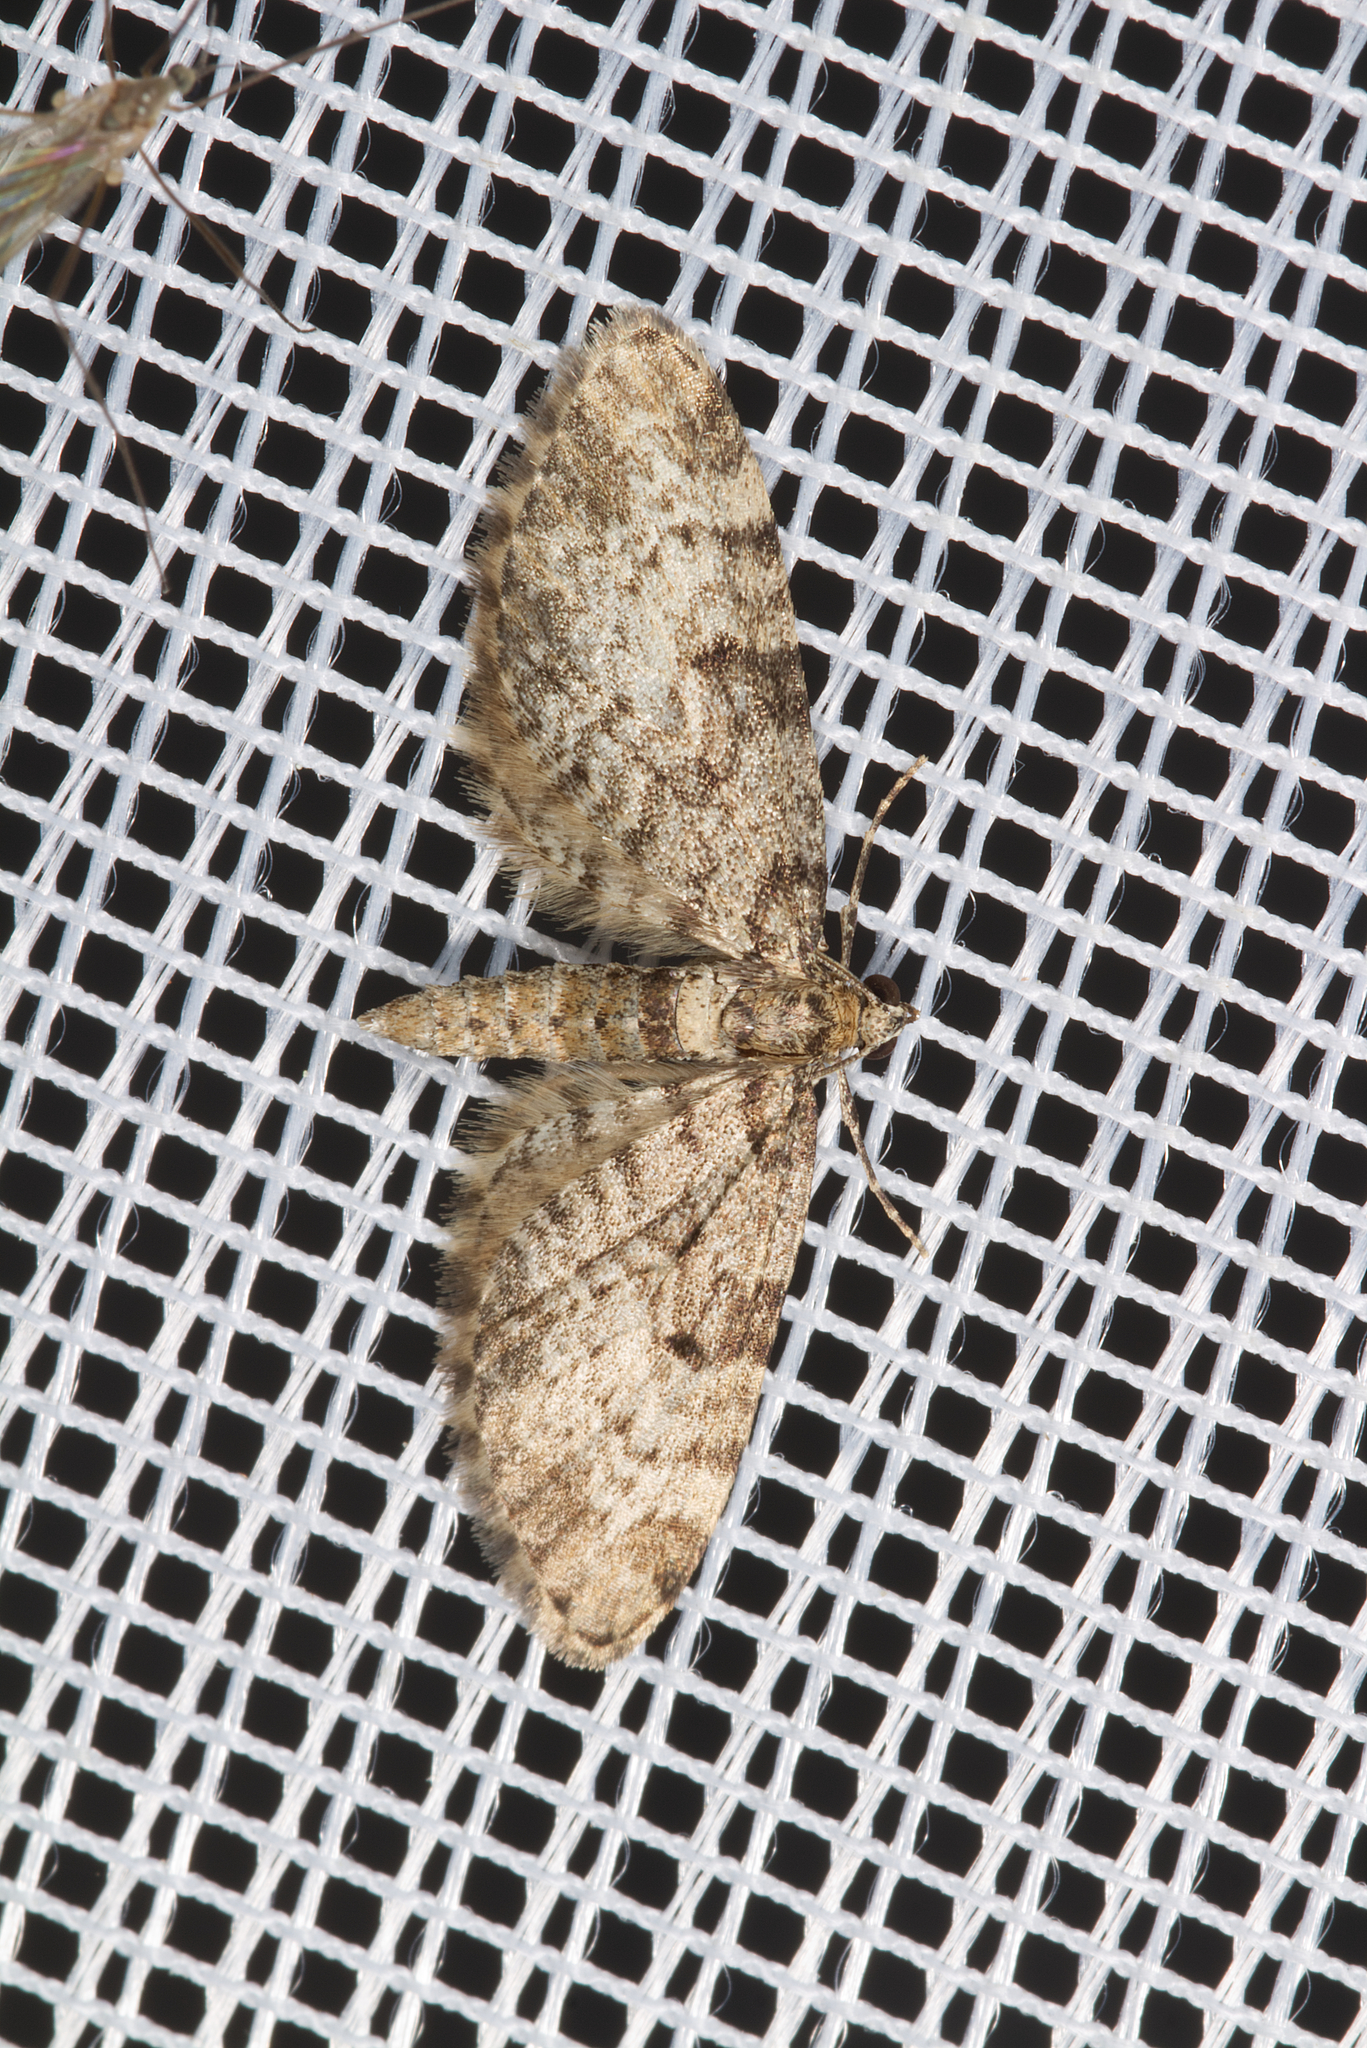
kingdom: Animalia
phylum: Arthropoda
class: Insecta
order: Lepidoptera
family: Geometridae
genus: Eupithecia
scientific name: Eupithecia tantillaria
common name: Dwarf pug
